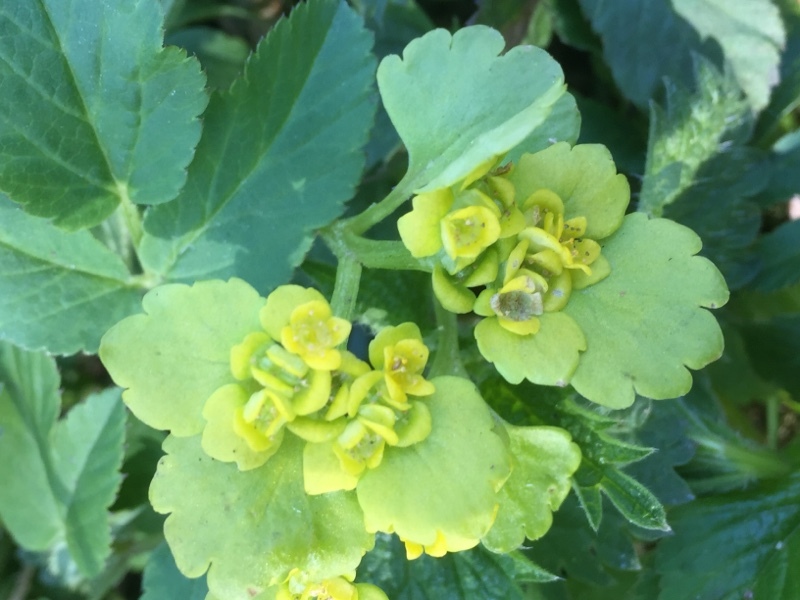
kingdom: Plantae
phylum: Tracheophyta
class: Magnoliopsida
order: Saxifragales
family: Saxifragaceae
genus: Chrysosplenium
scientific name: Chrysosplenium alternifolium
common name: Alternate-leaved golden-saxifrage
